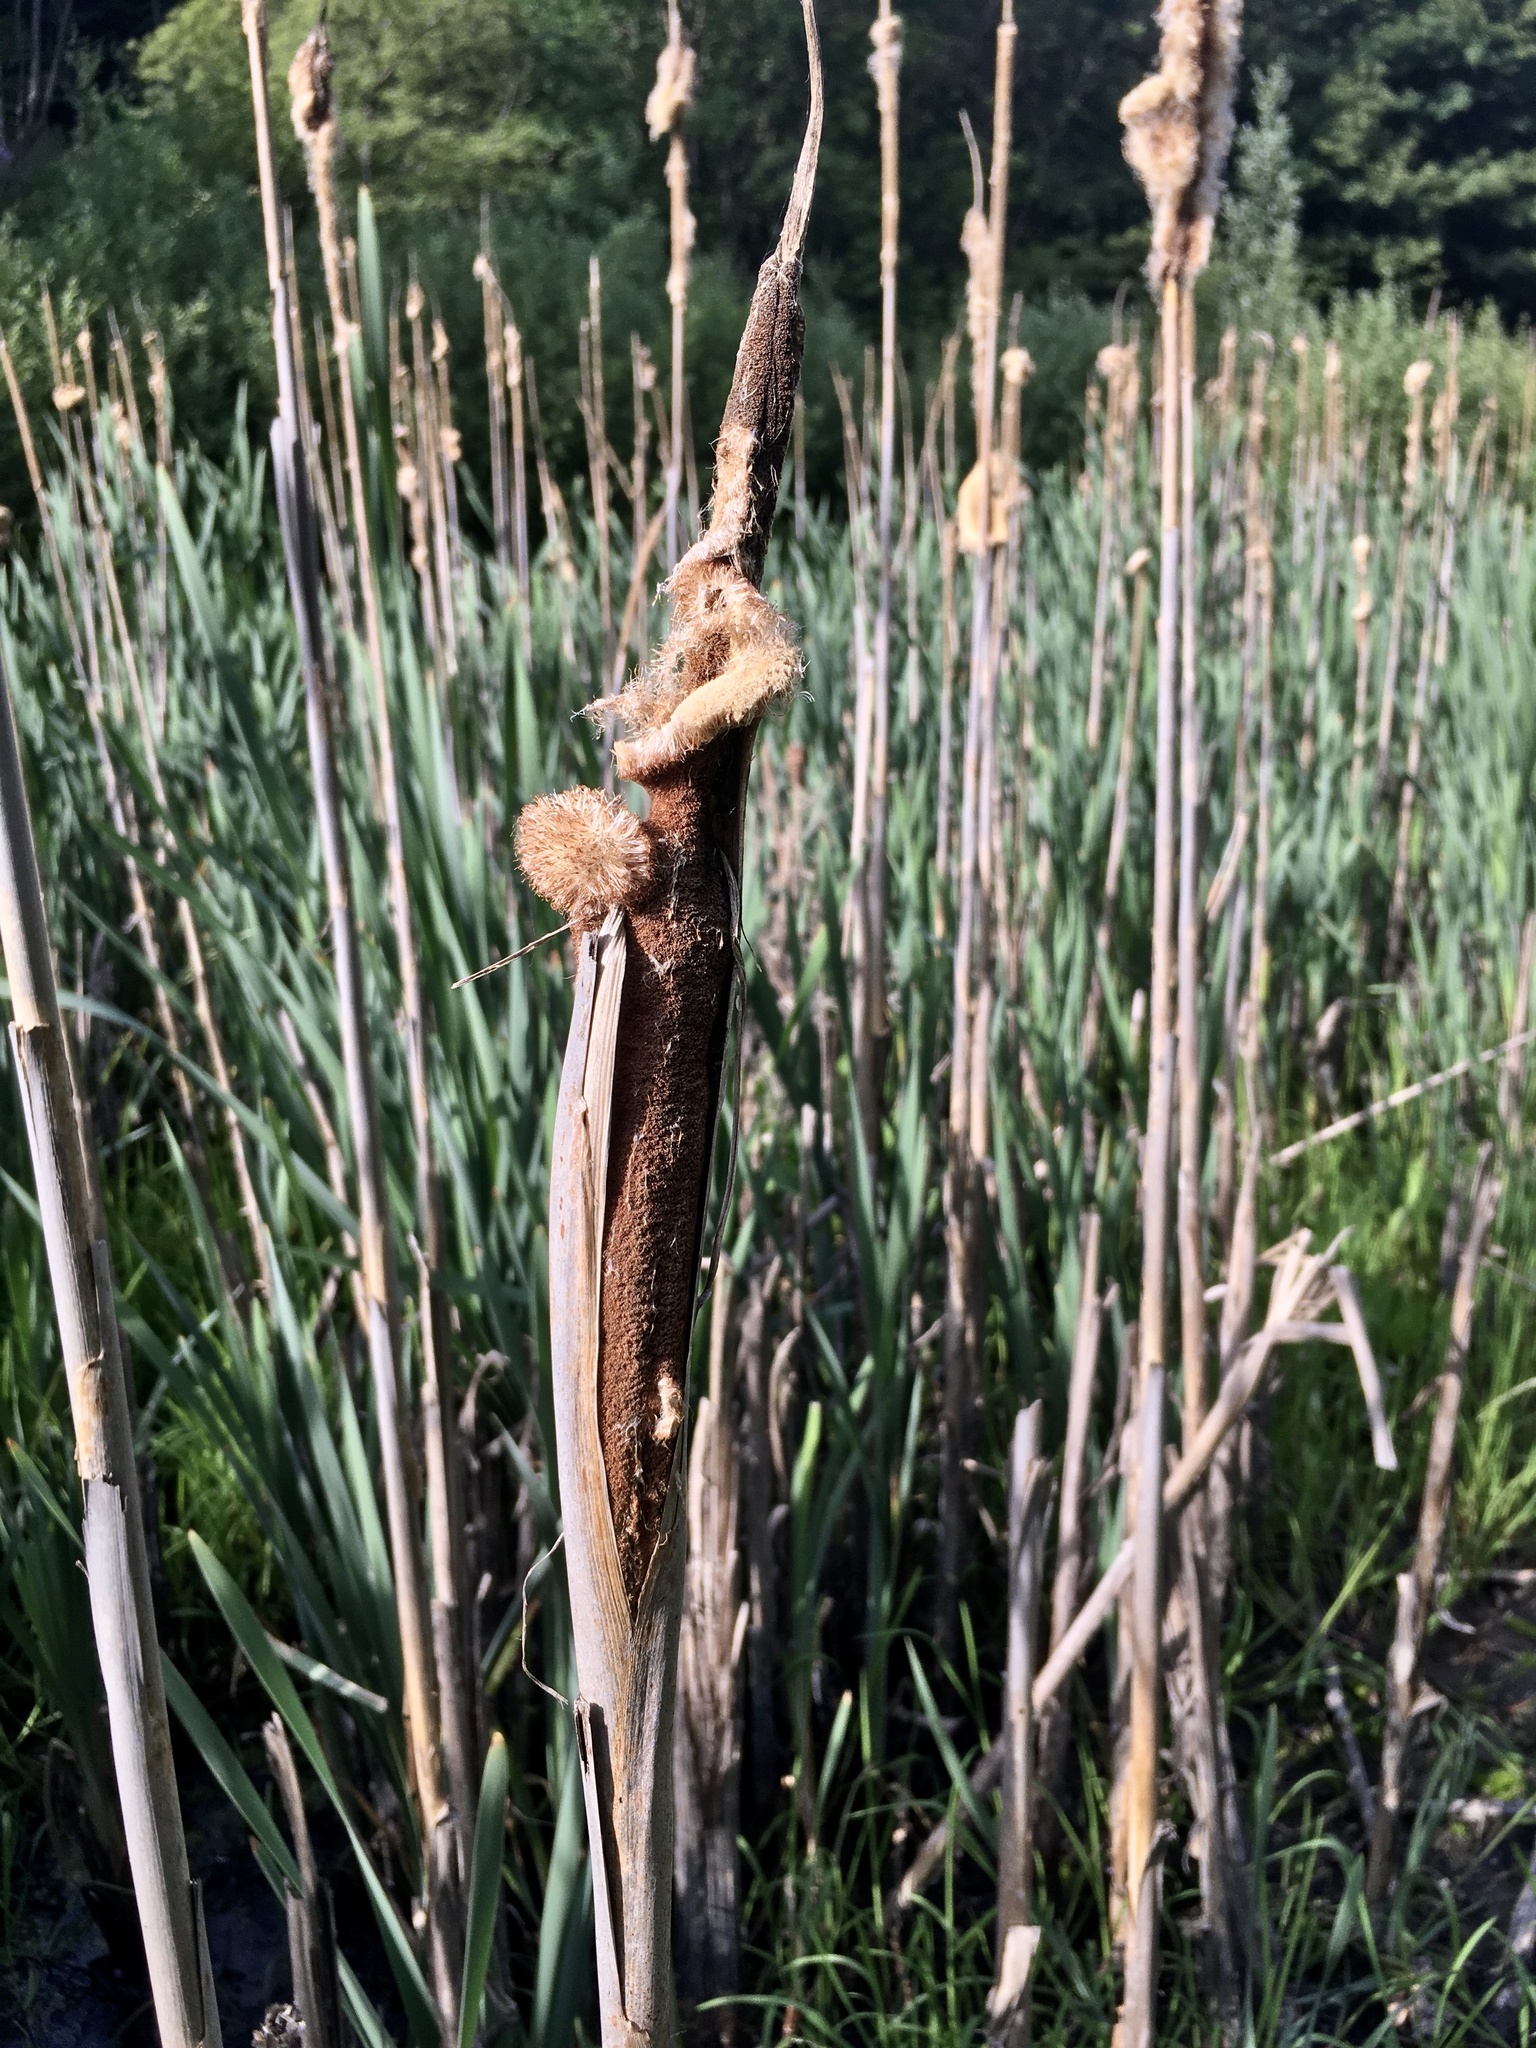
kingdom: Plantae
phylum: Tracheophyta
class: Liliopsida
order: Poales
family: Typhaceae
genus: Typha
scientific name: Typha latifolia
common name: Broadleaf cattail
